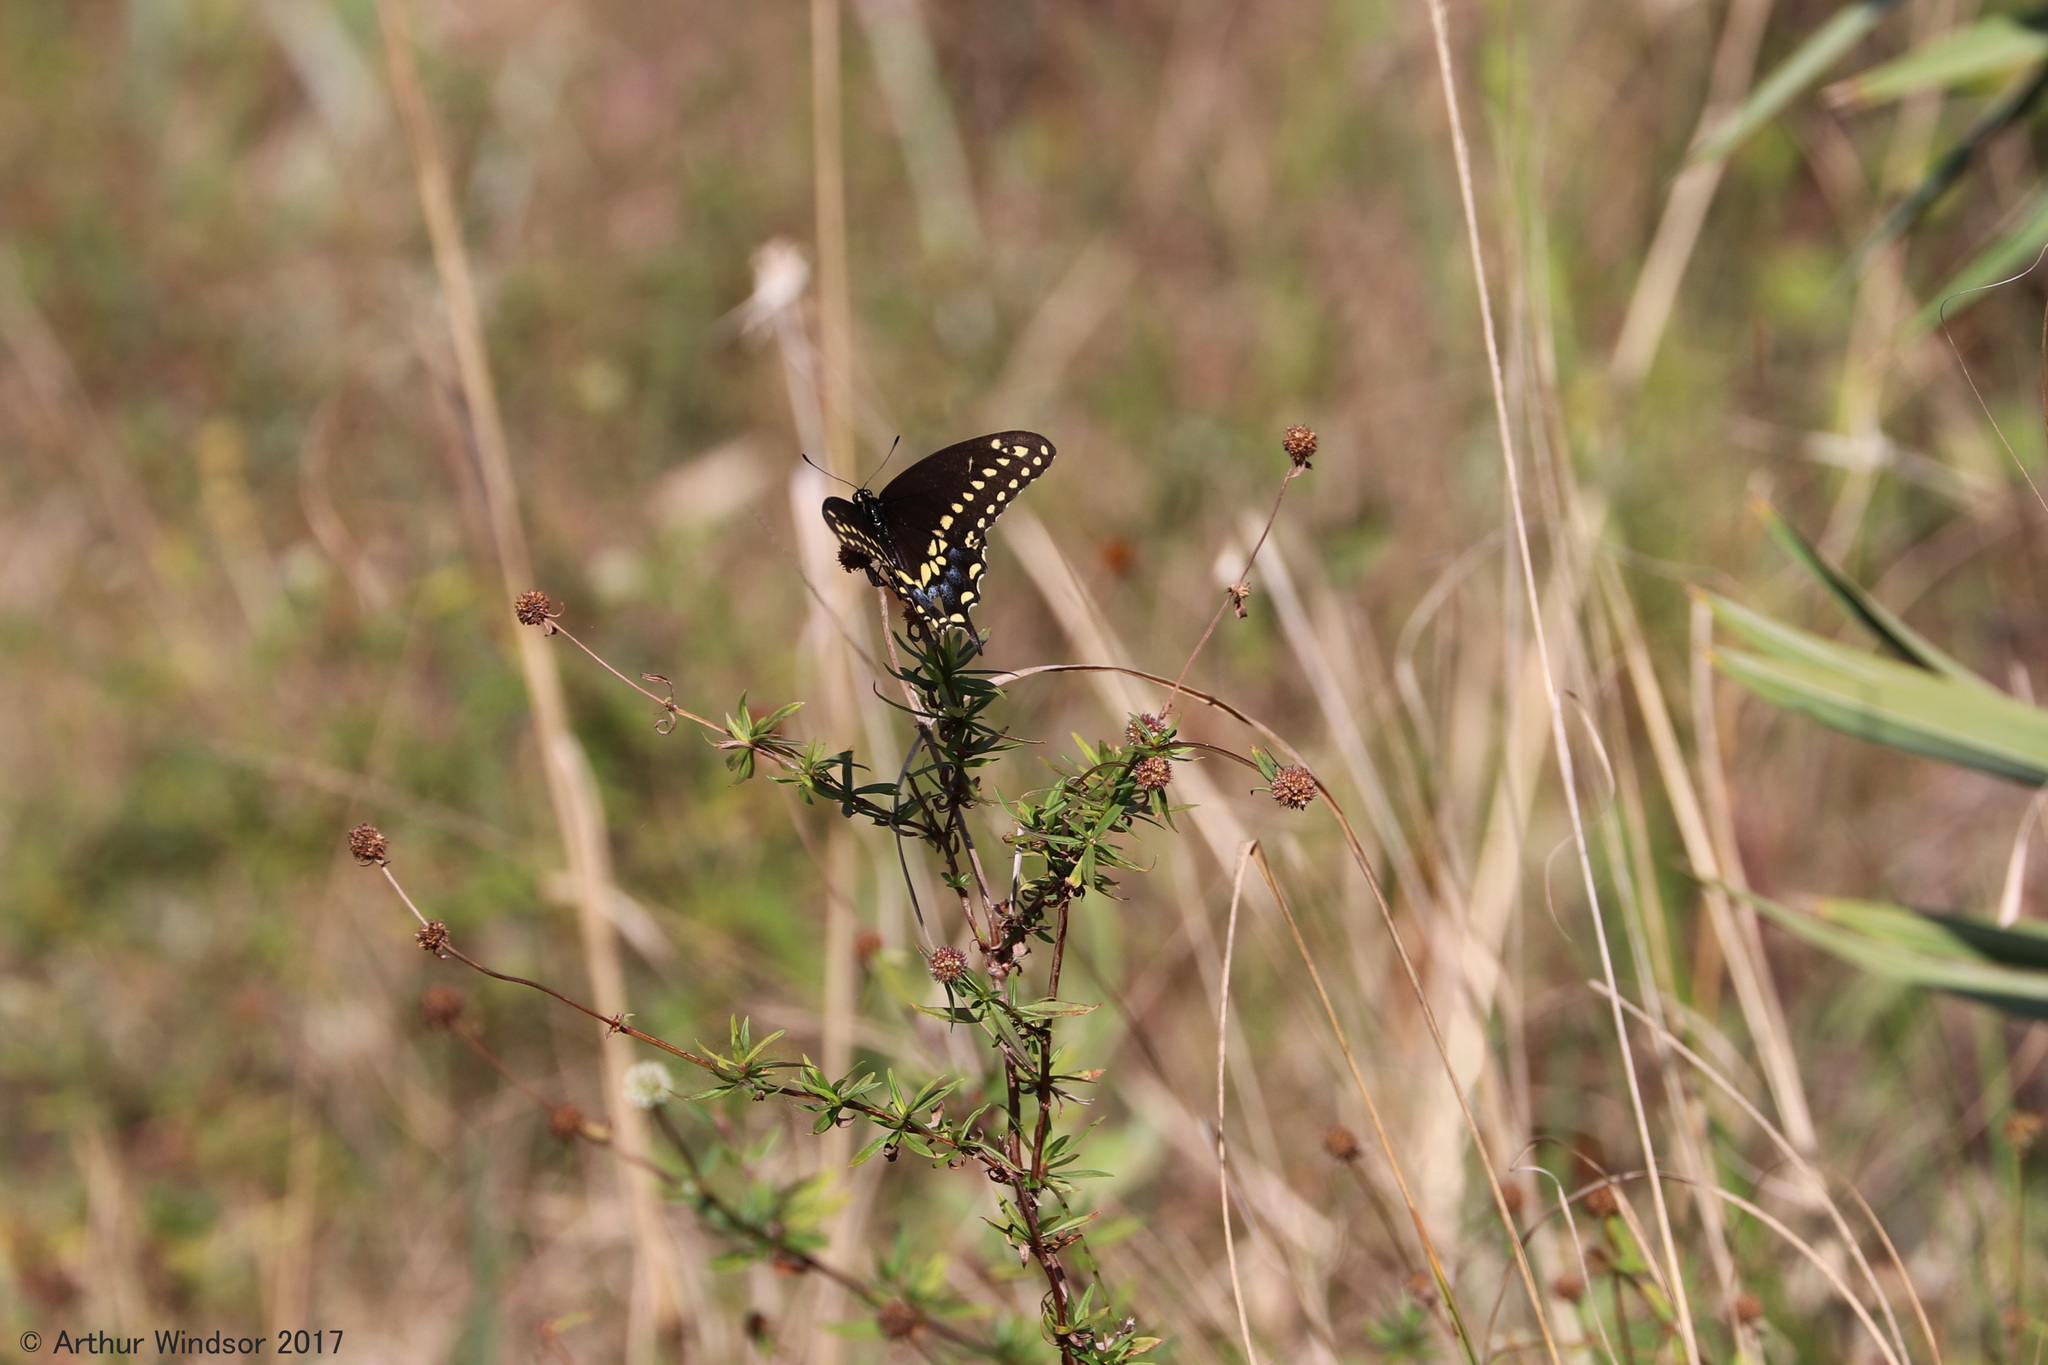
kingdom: Animalia
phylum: Arthropoda
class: Insecta
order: Lepidoptera
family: Papilionidae
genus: Papilio
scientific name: Papilio polyxenes
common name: Black swallowtail
